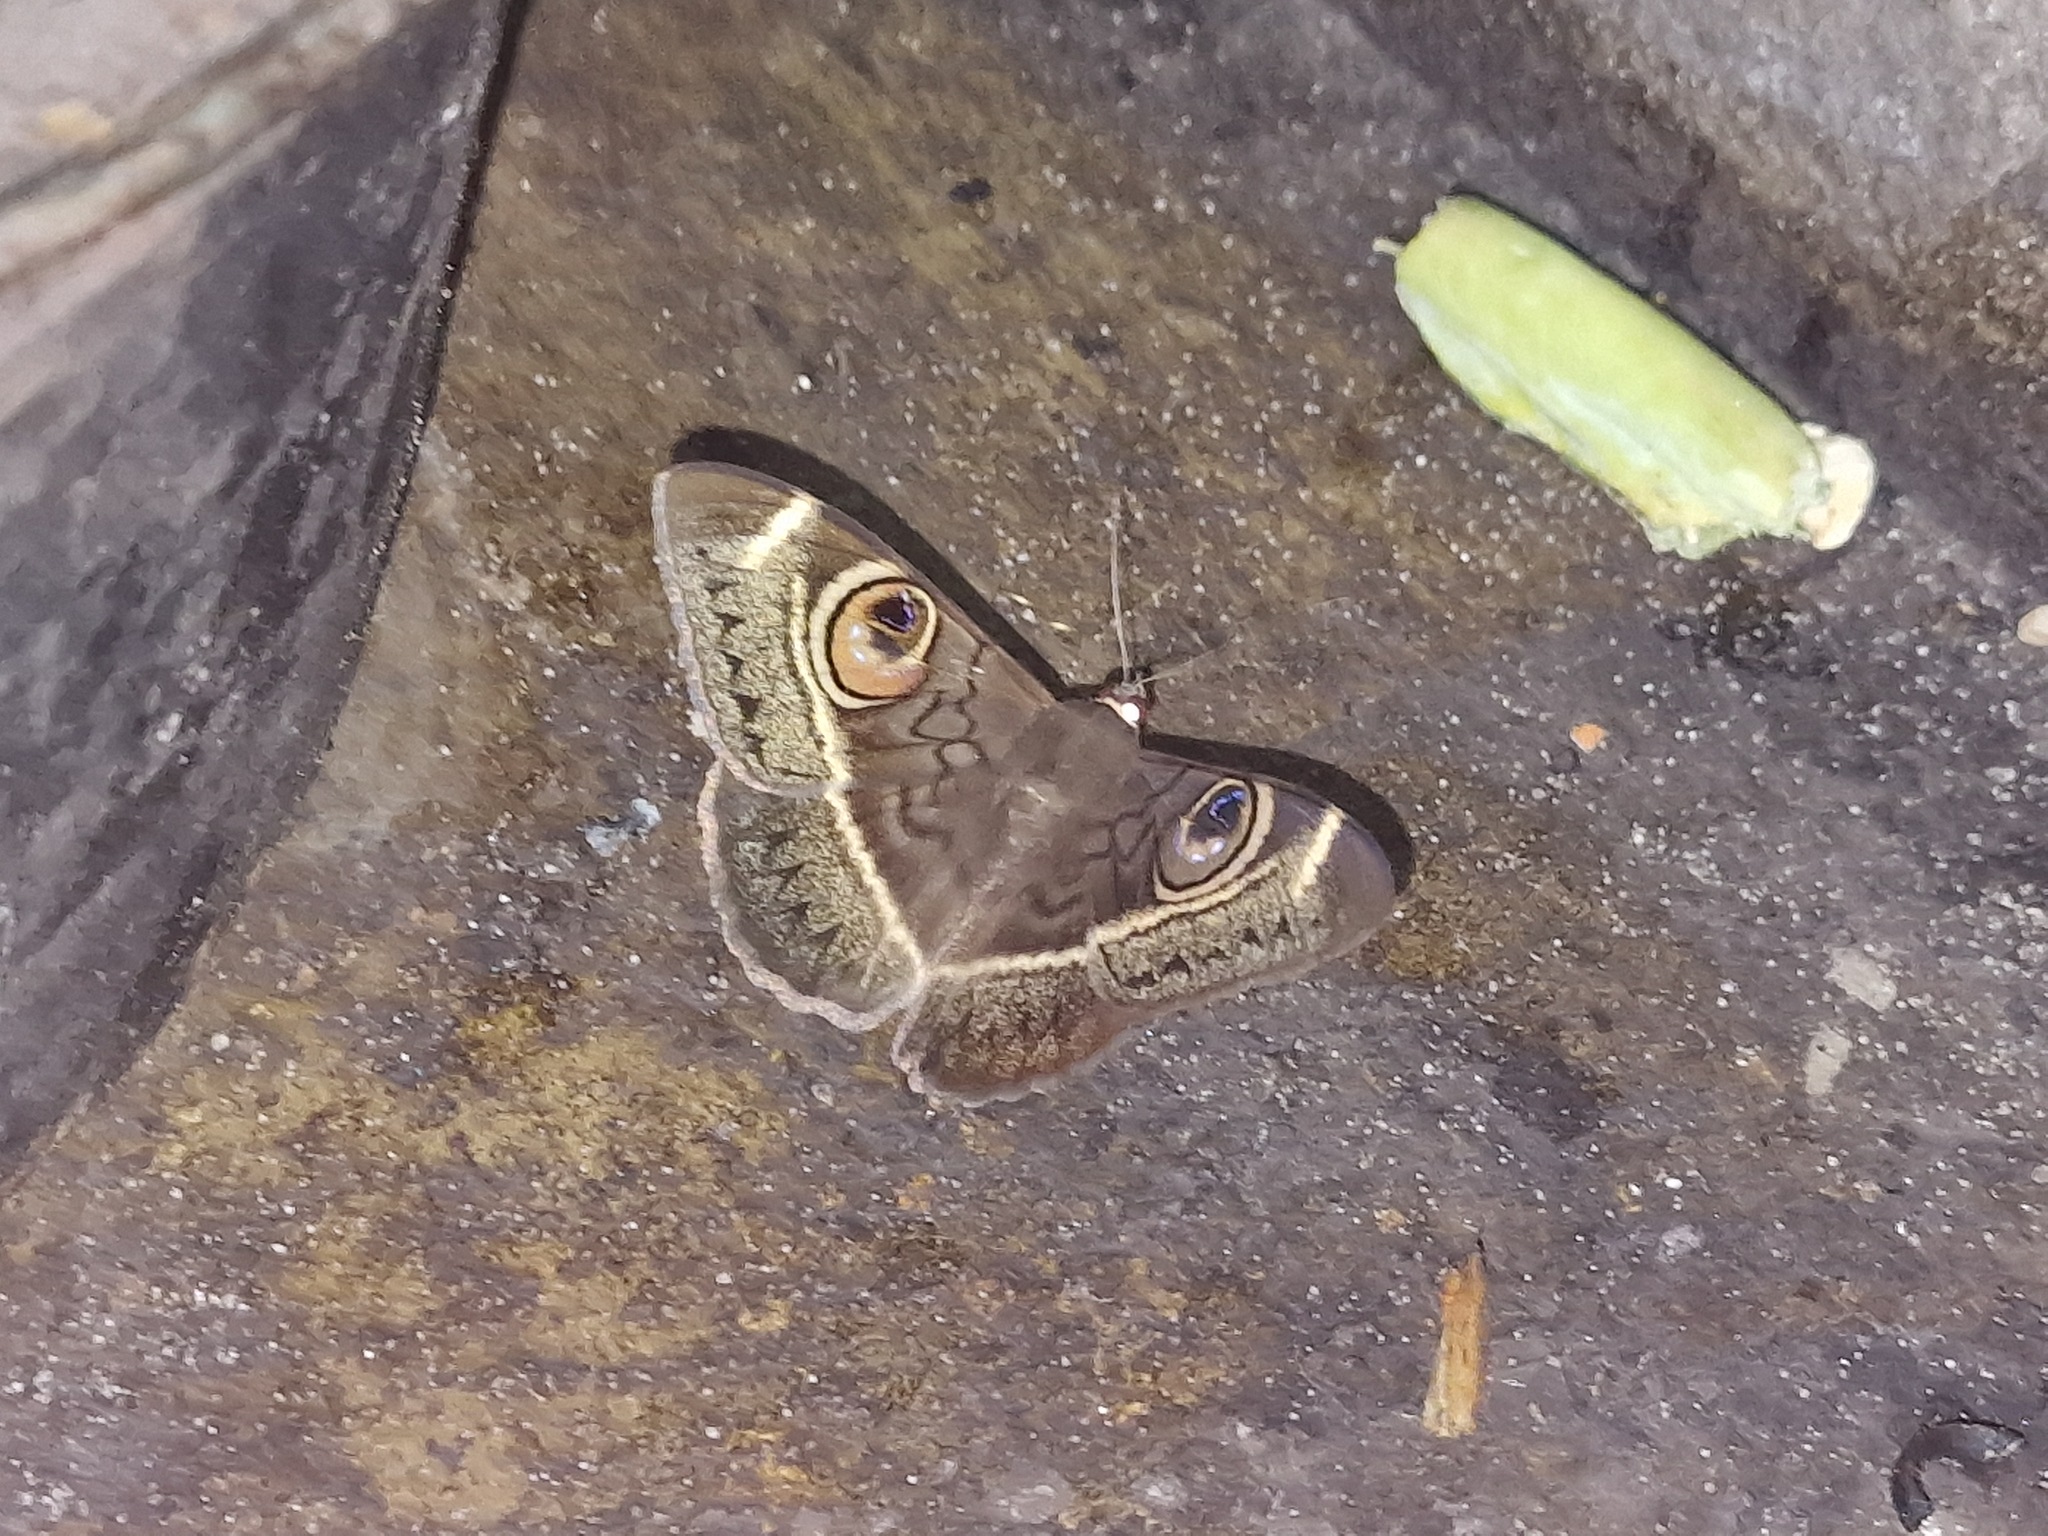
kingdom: Animalia
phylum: Arthropoda
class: Insecta
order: Lepidoptera
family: Erebidae
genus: Cyligramma
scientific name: Cyligramma latona
